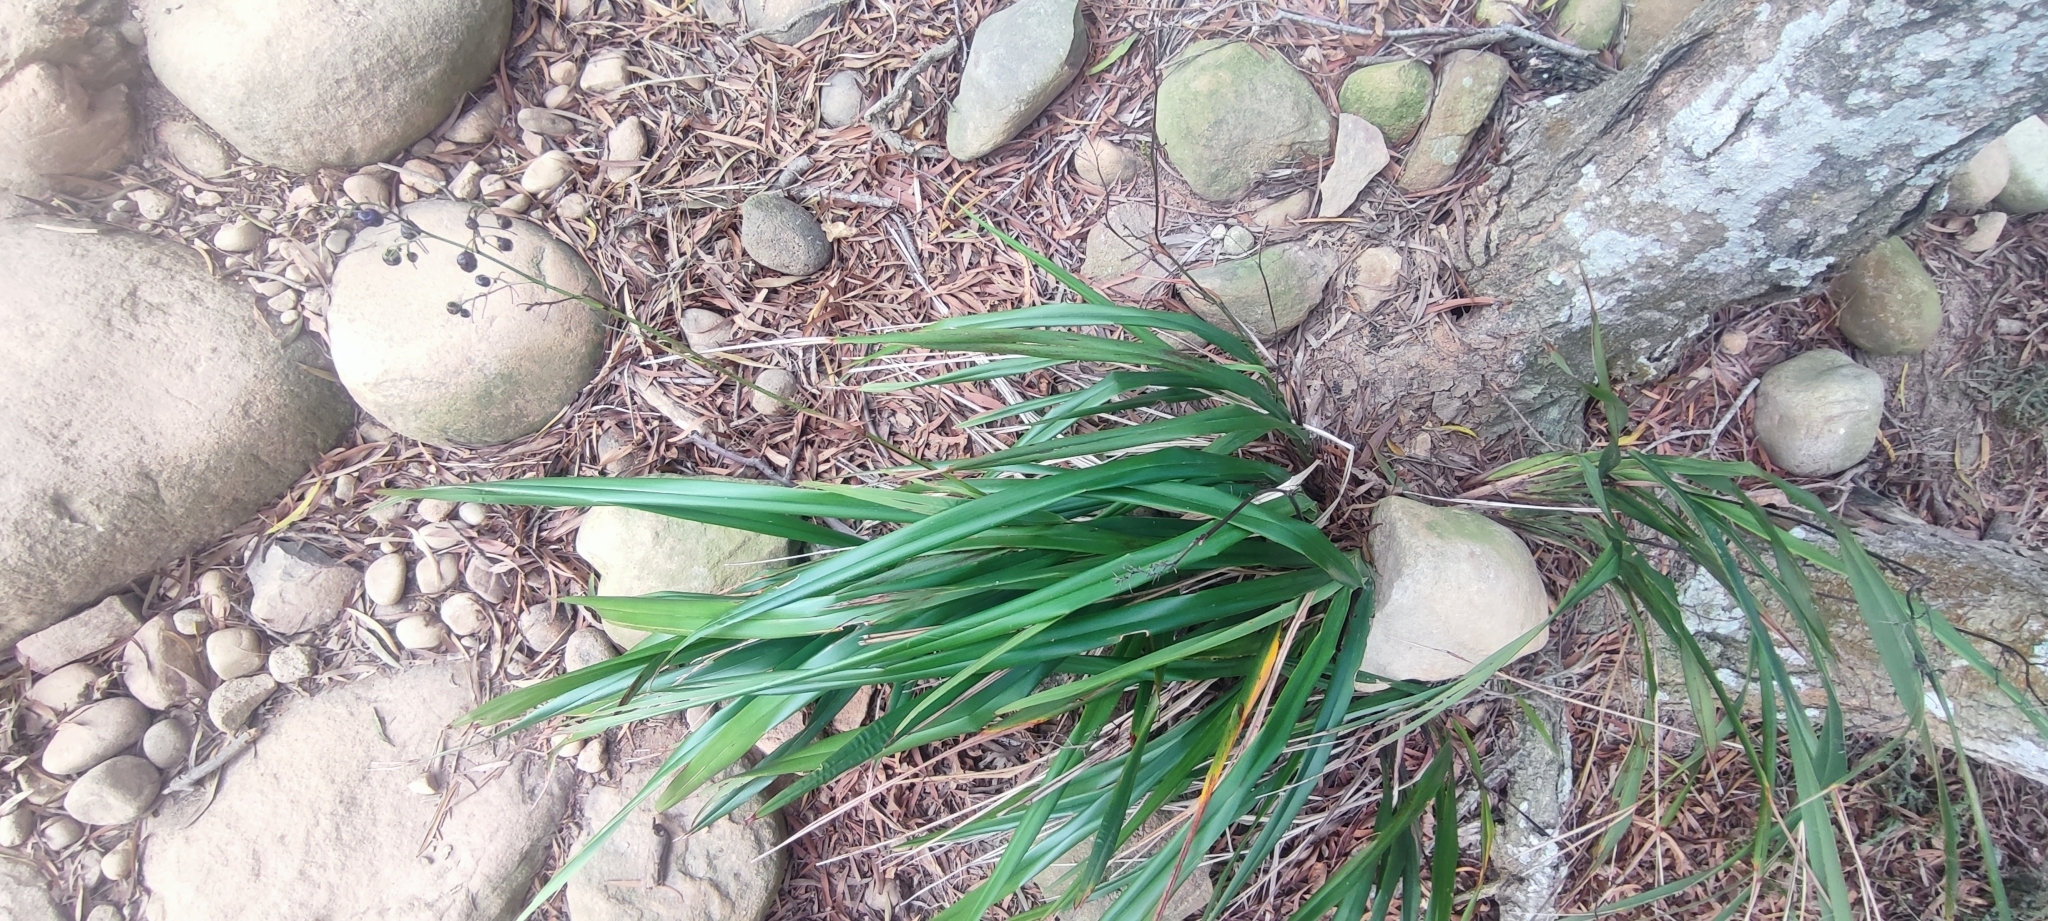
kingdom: Plantae
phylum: Tracheophyta
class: Liliopsida
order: Asparagales
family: Asphodelaceae
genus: Dianella
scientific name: Dianella ensifolia
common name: New zealand lilyplant
